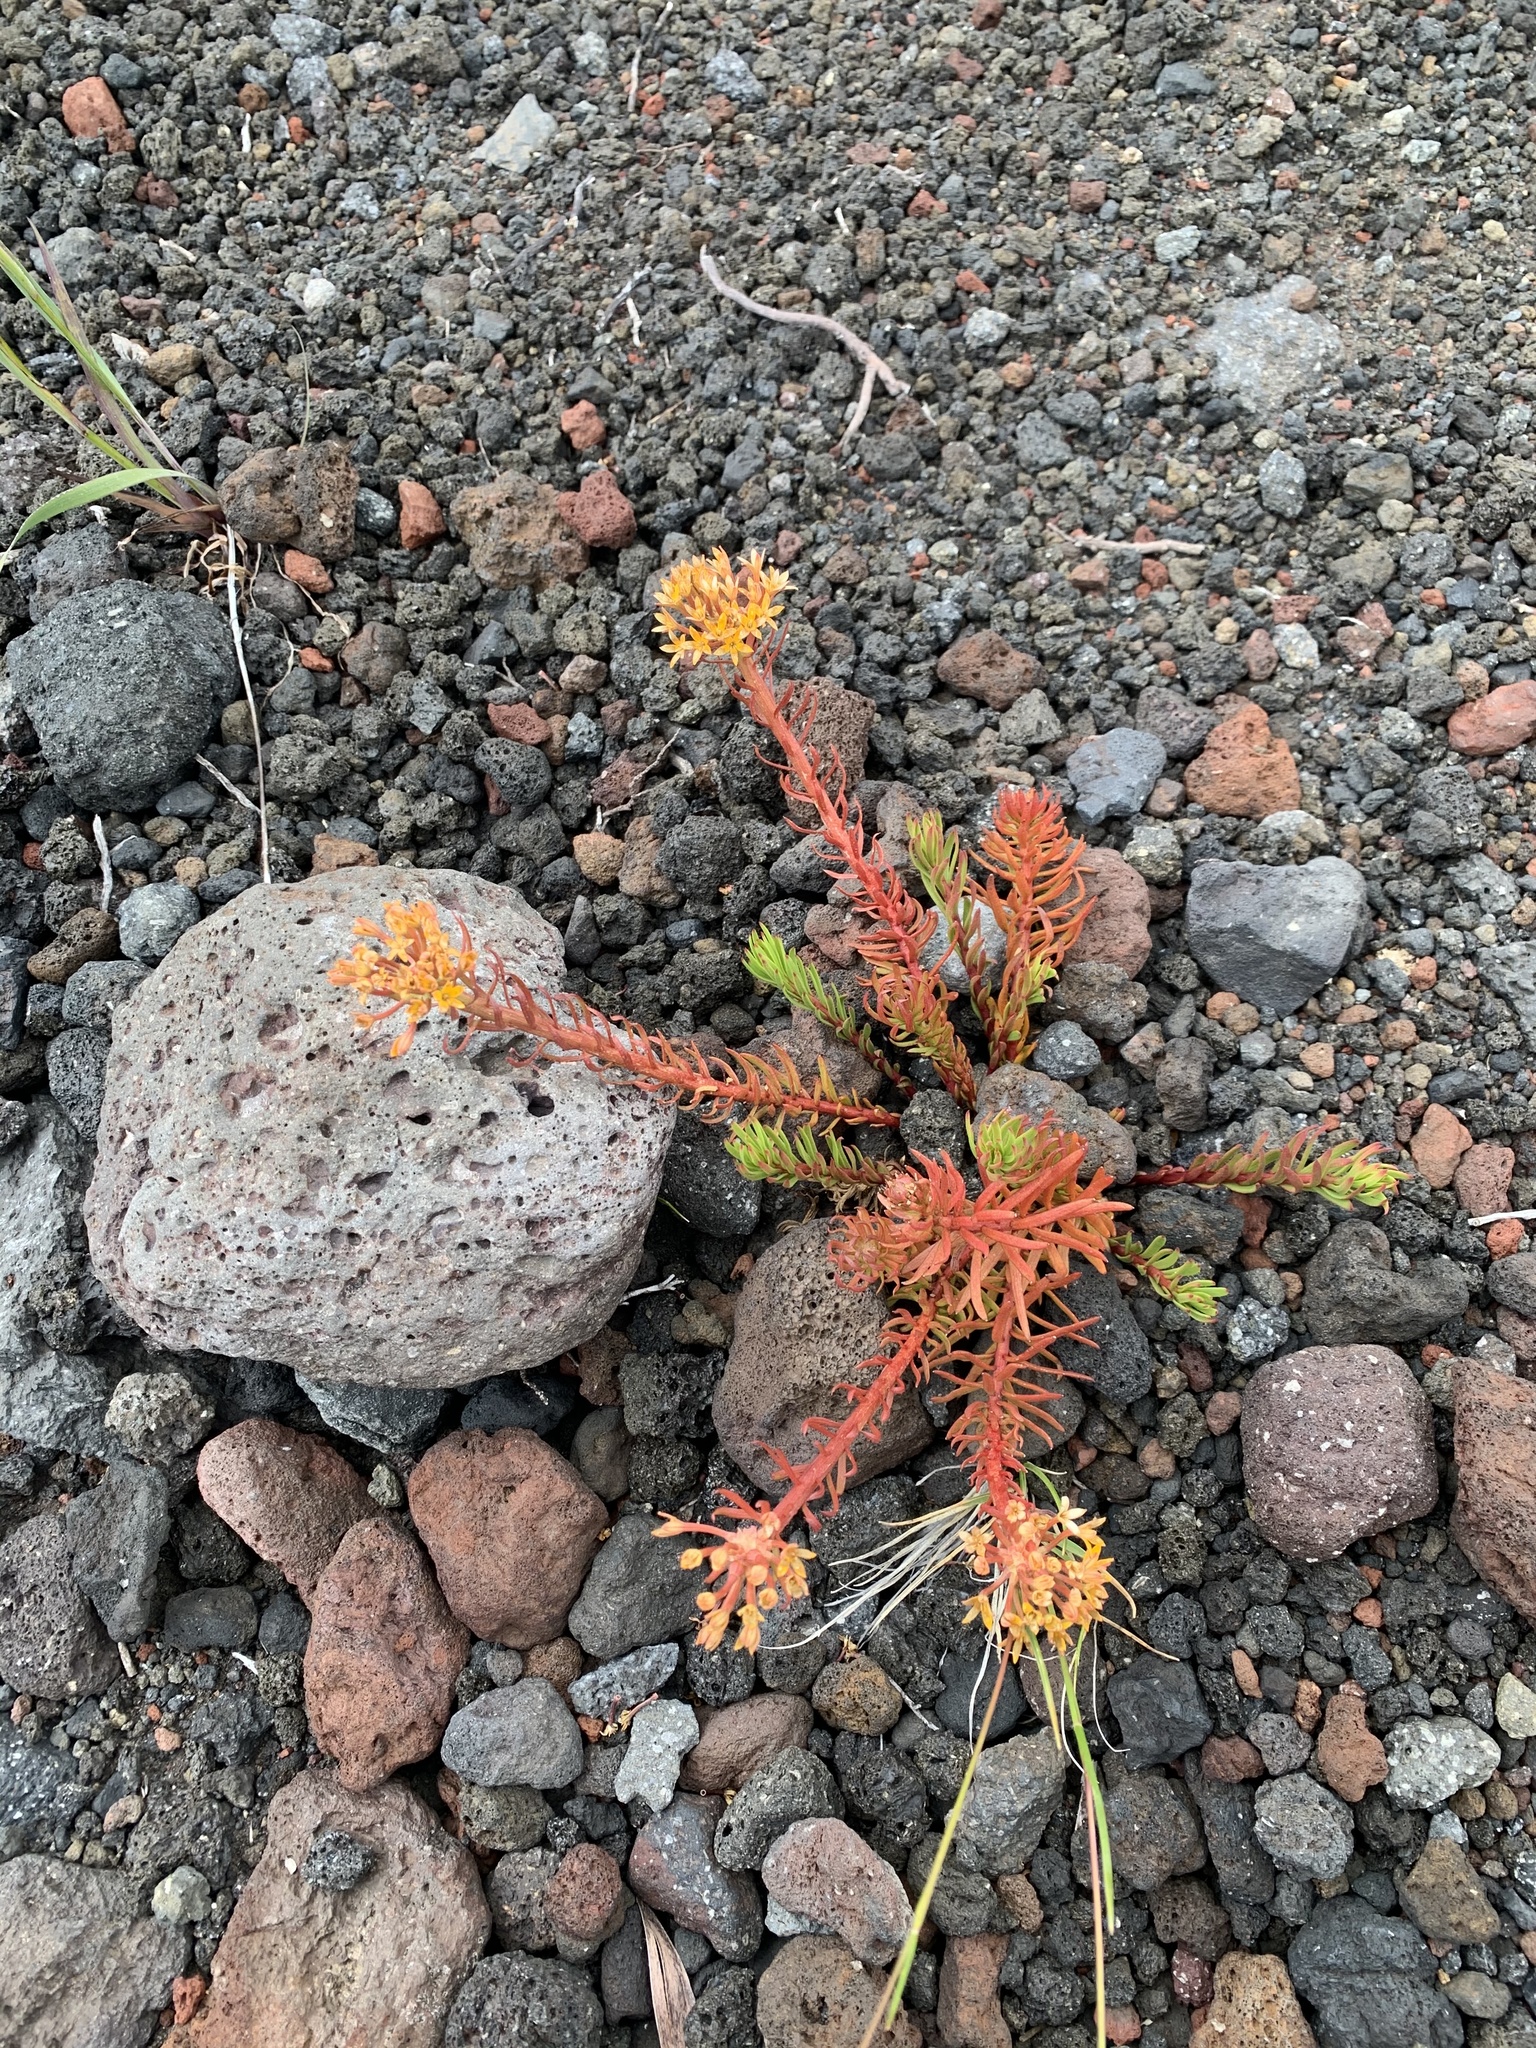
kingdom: Plantae
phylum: Tracheophyta
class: Magnoliopsida
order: Santalales
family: Schoepfiaceae
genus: Quinchamalium
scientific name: Quinchamalium chilense
